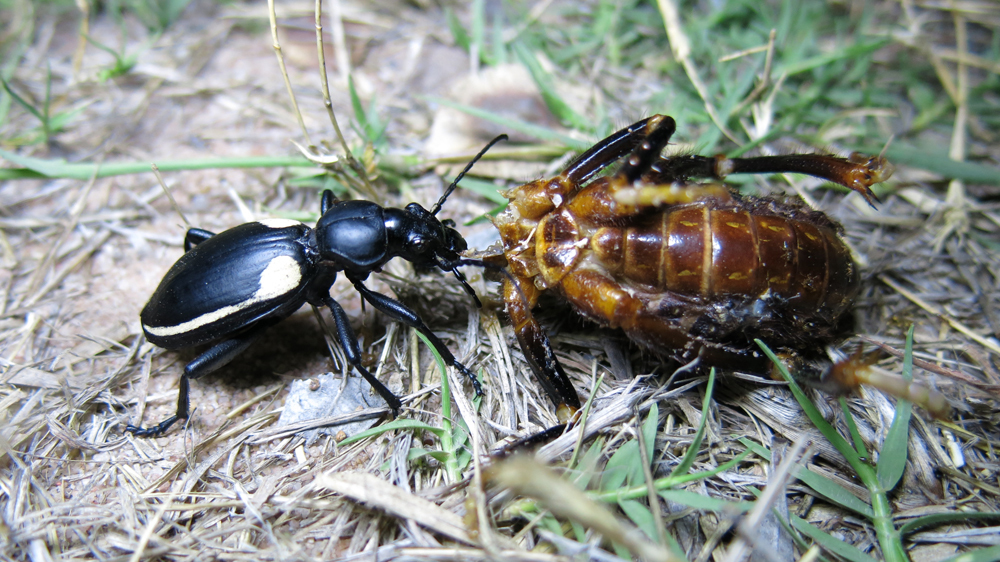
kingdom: Animalia
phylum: Arthropoda
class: Insecta
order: Coleoptera
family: Carabidae
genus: Anthia
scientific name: Anthia
